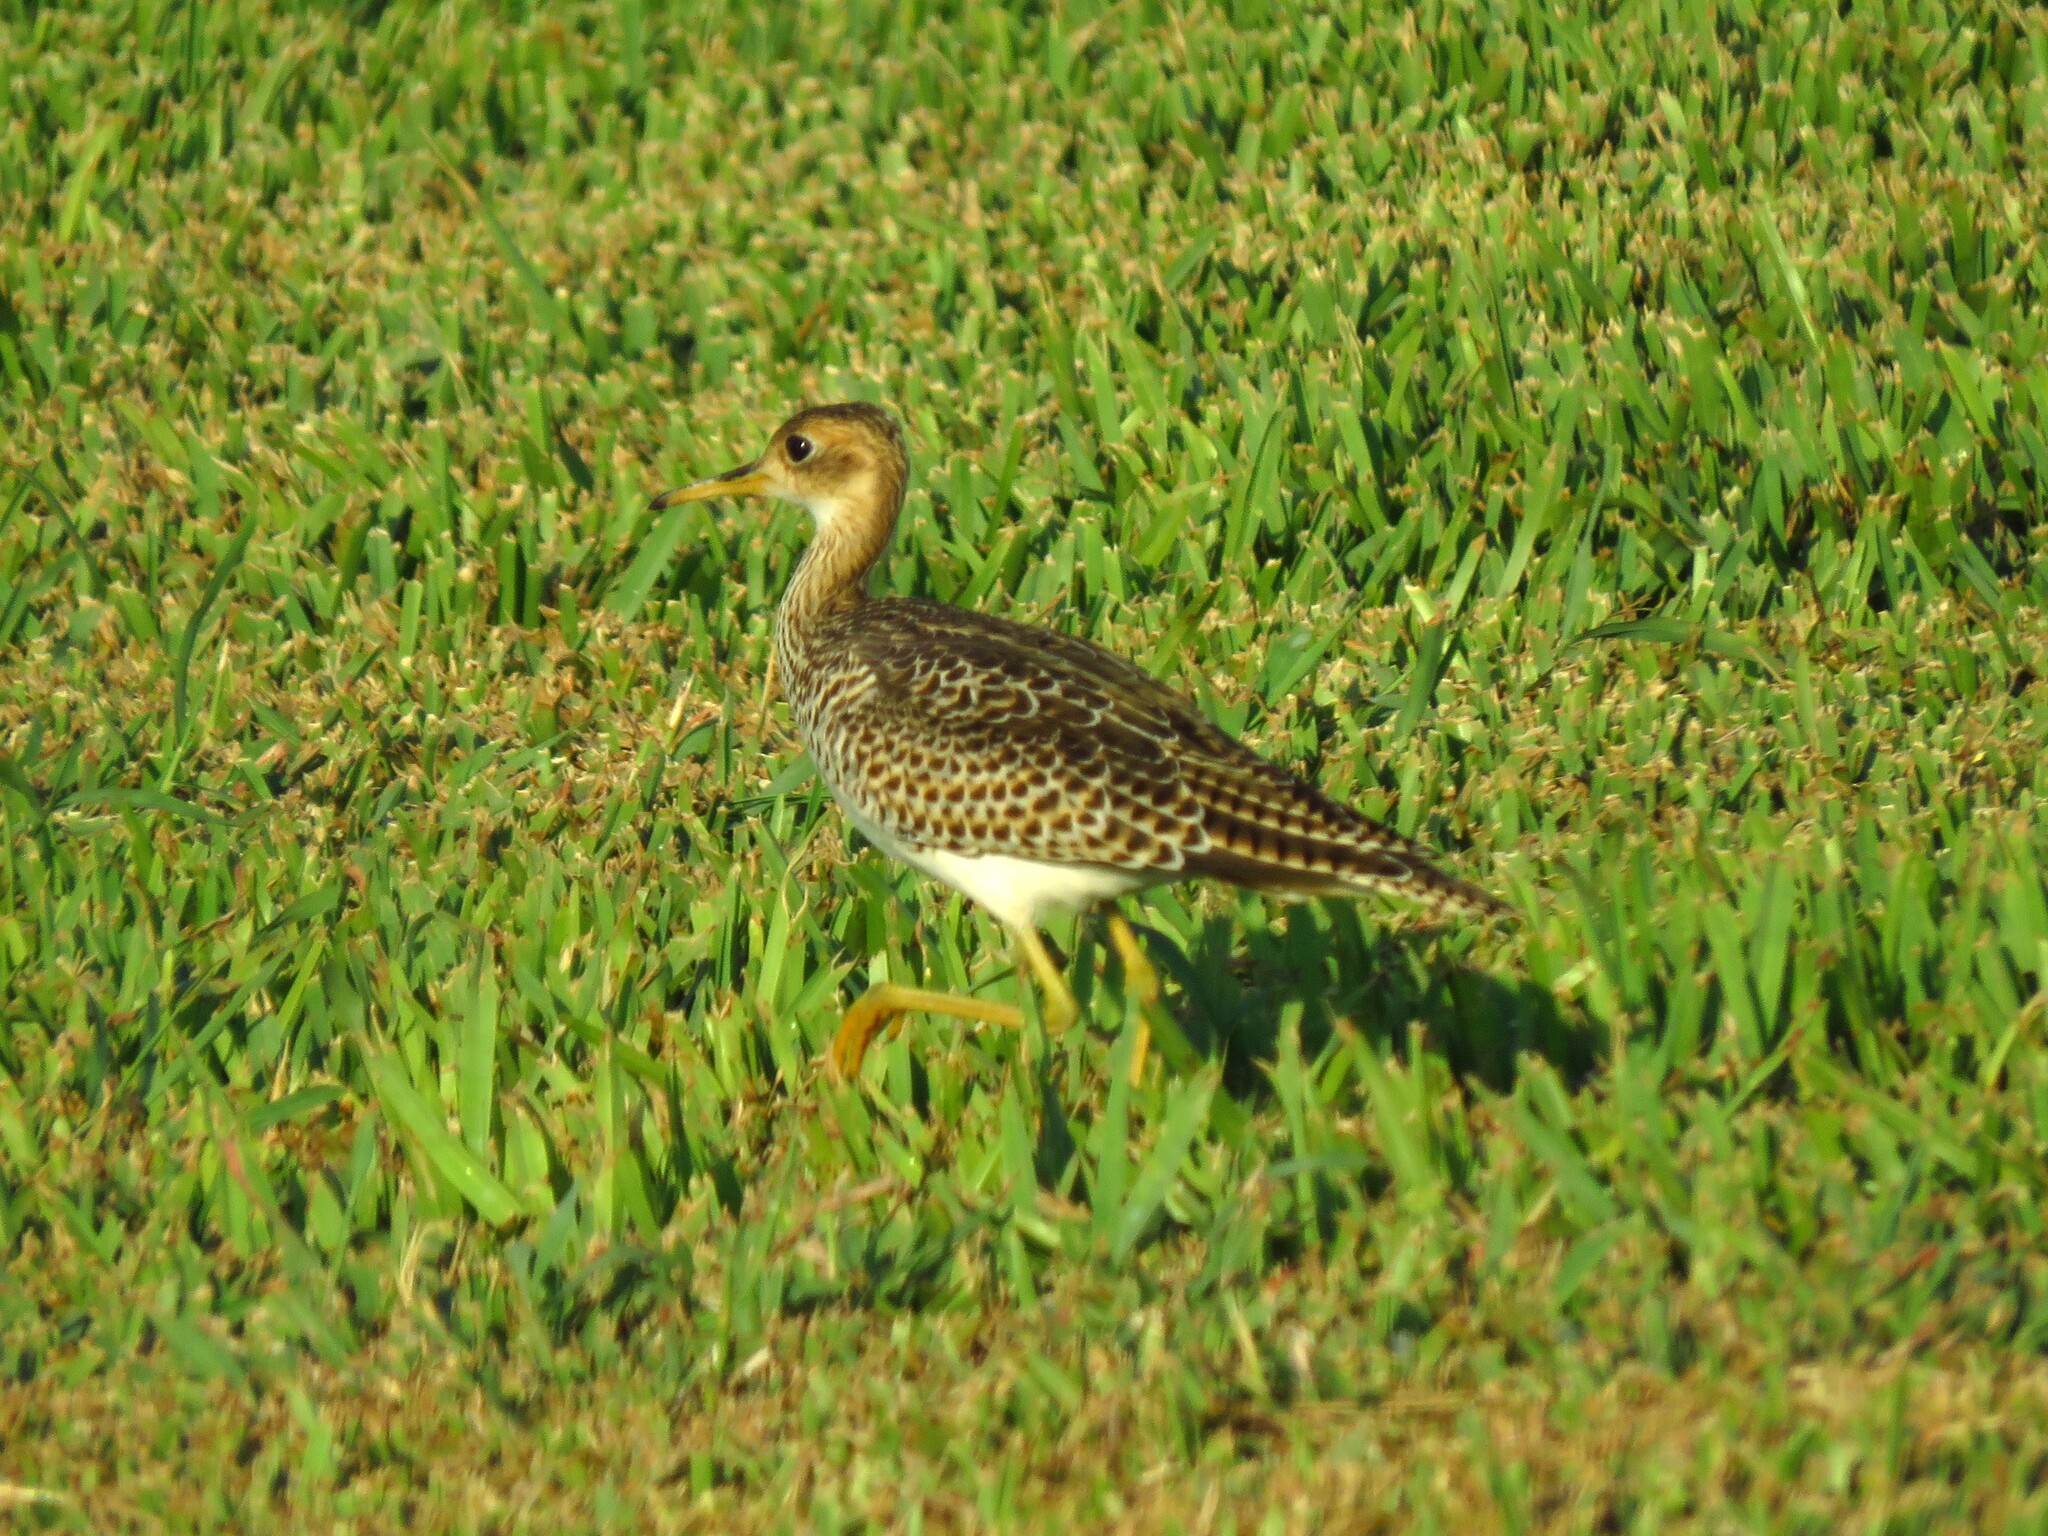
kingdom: Animalia
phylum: Chordata
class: Aves
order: Charadriiformes
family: Scolopacidae
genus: Bartramia
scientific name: Bartramia longicauda
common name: Upland sandpiper
